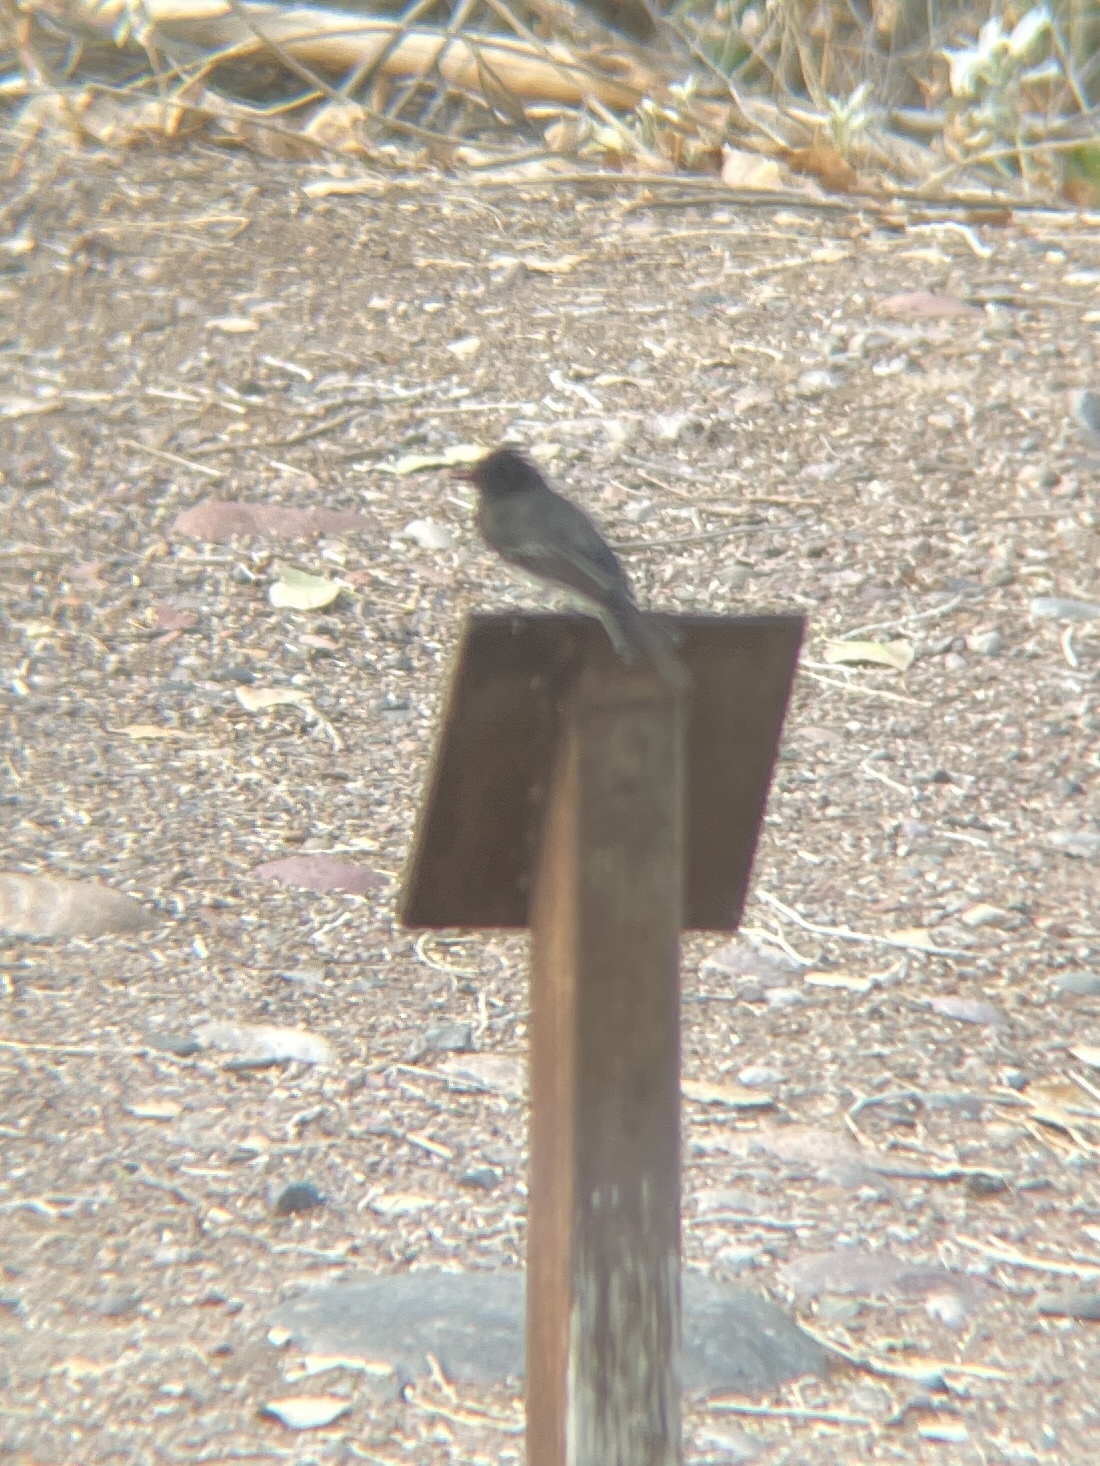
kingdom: Animalia
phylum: Chordata
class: Aves
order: Passeriformes
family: Tyrannidae
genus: Sayornis
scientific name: Sayornis nigricans
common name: Black phoebe
